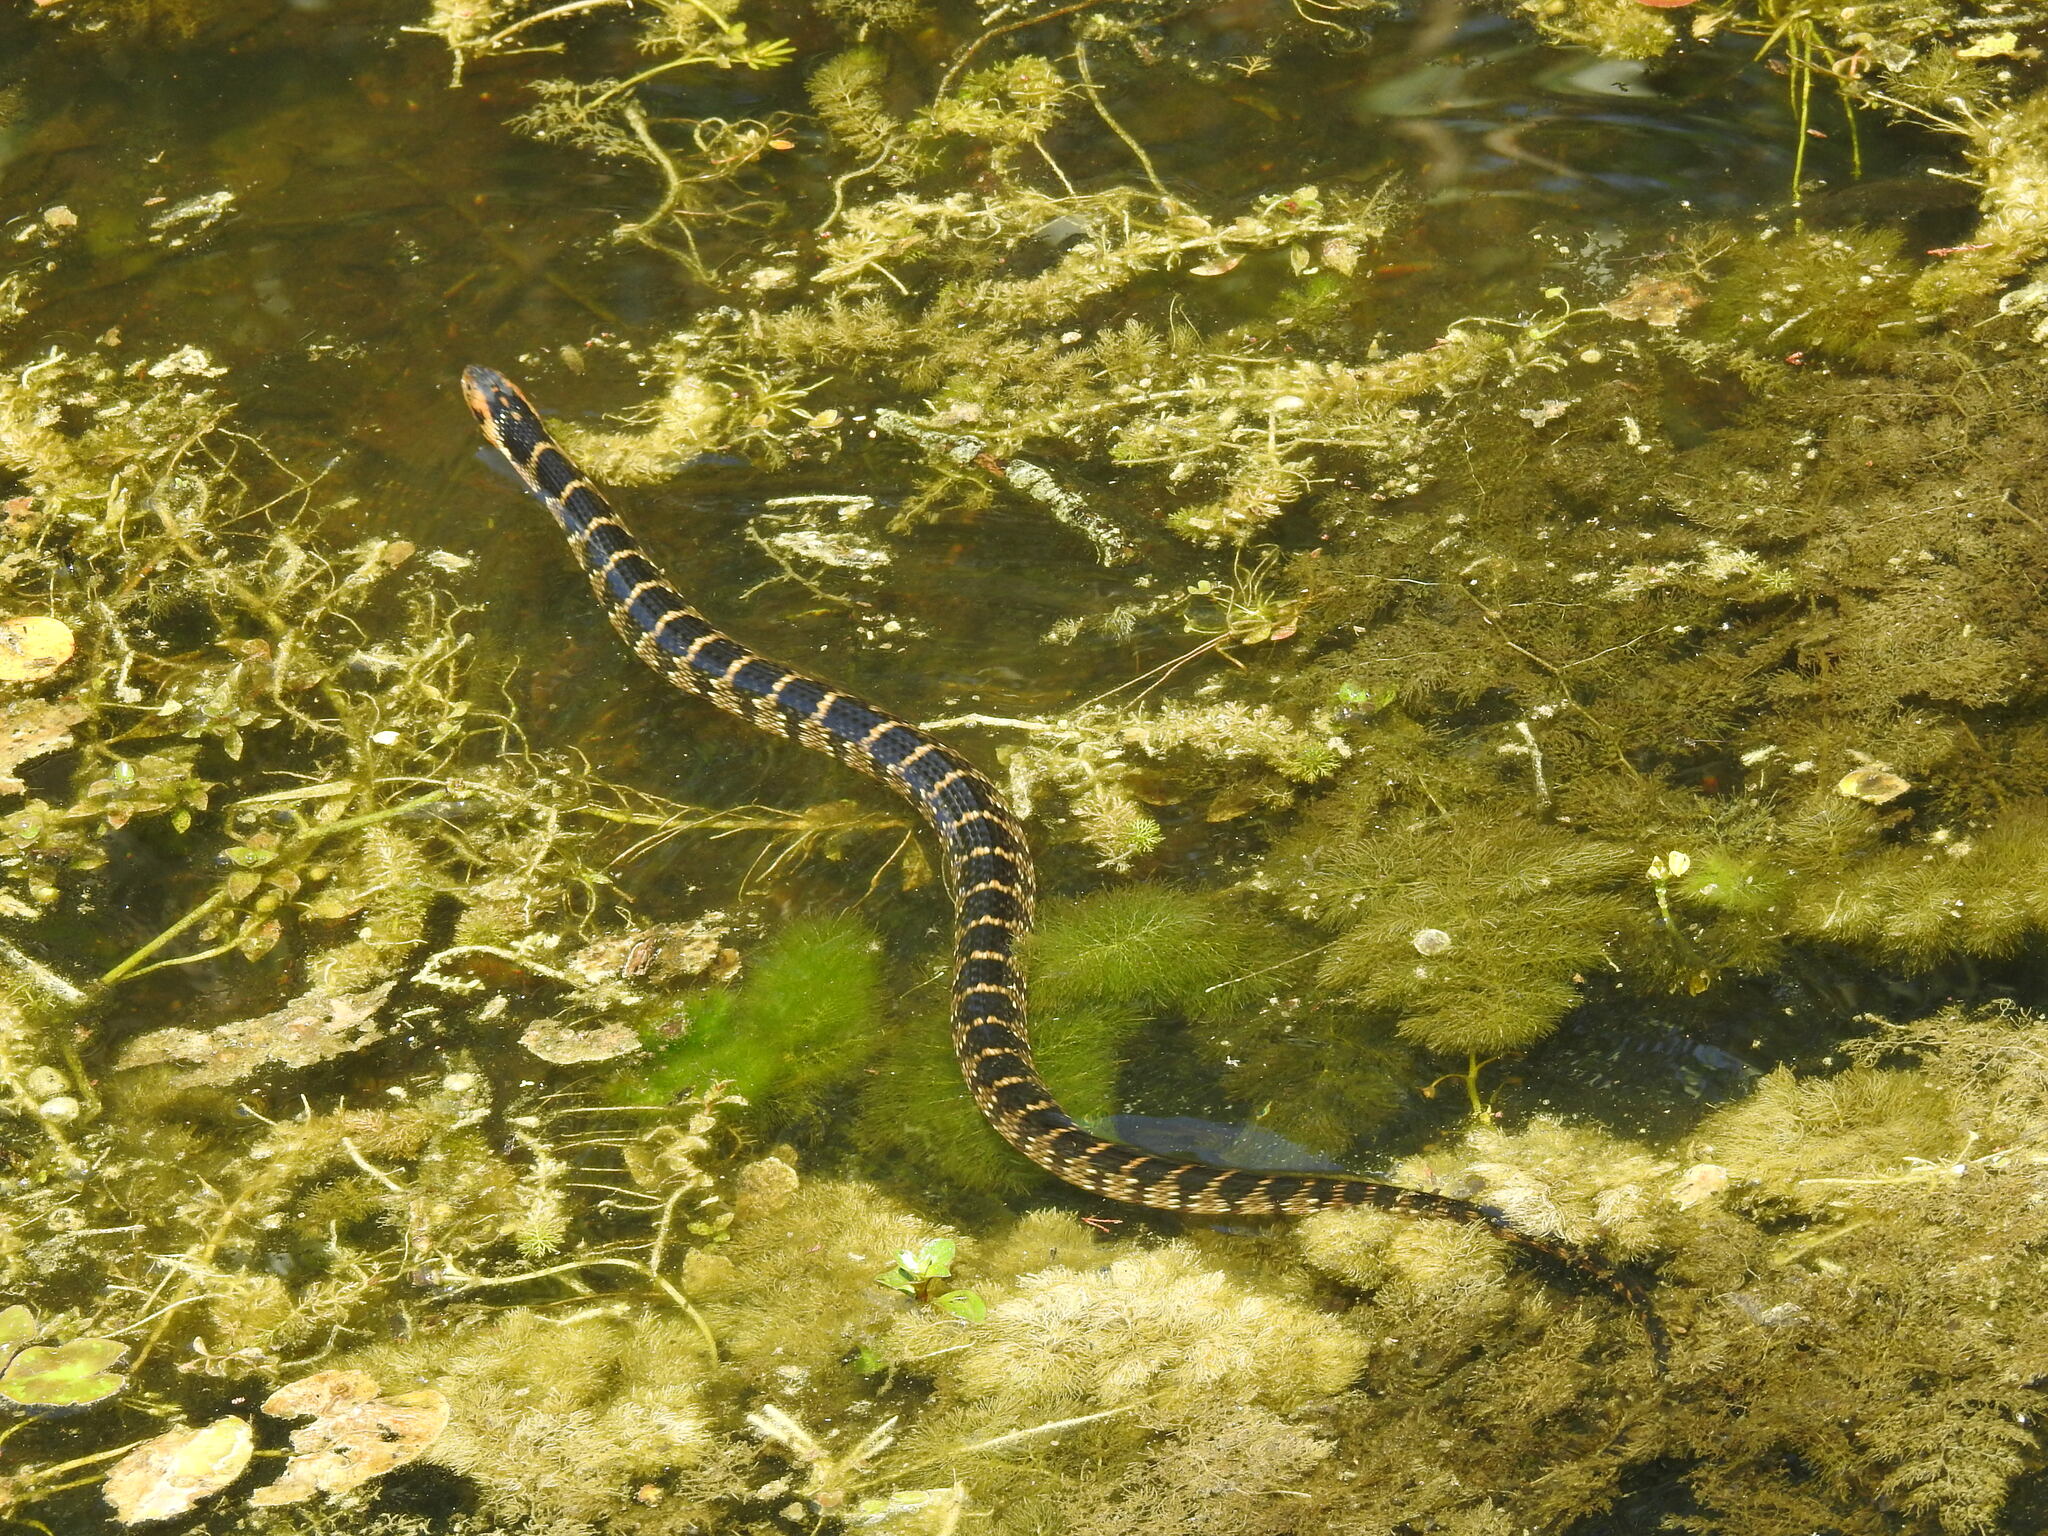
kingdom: Animalia
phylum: Chordata
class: Squamata
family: Colubridae
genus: Nerodia
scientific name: Nerodia fasciata
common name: Southern water snake
